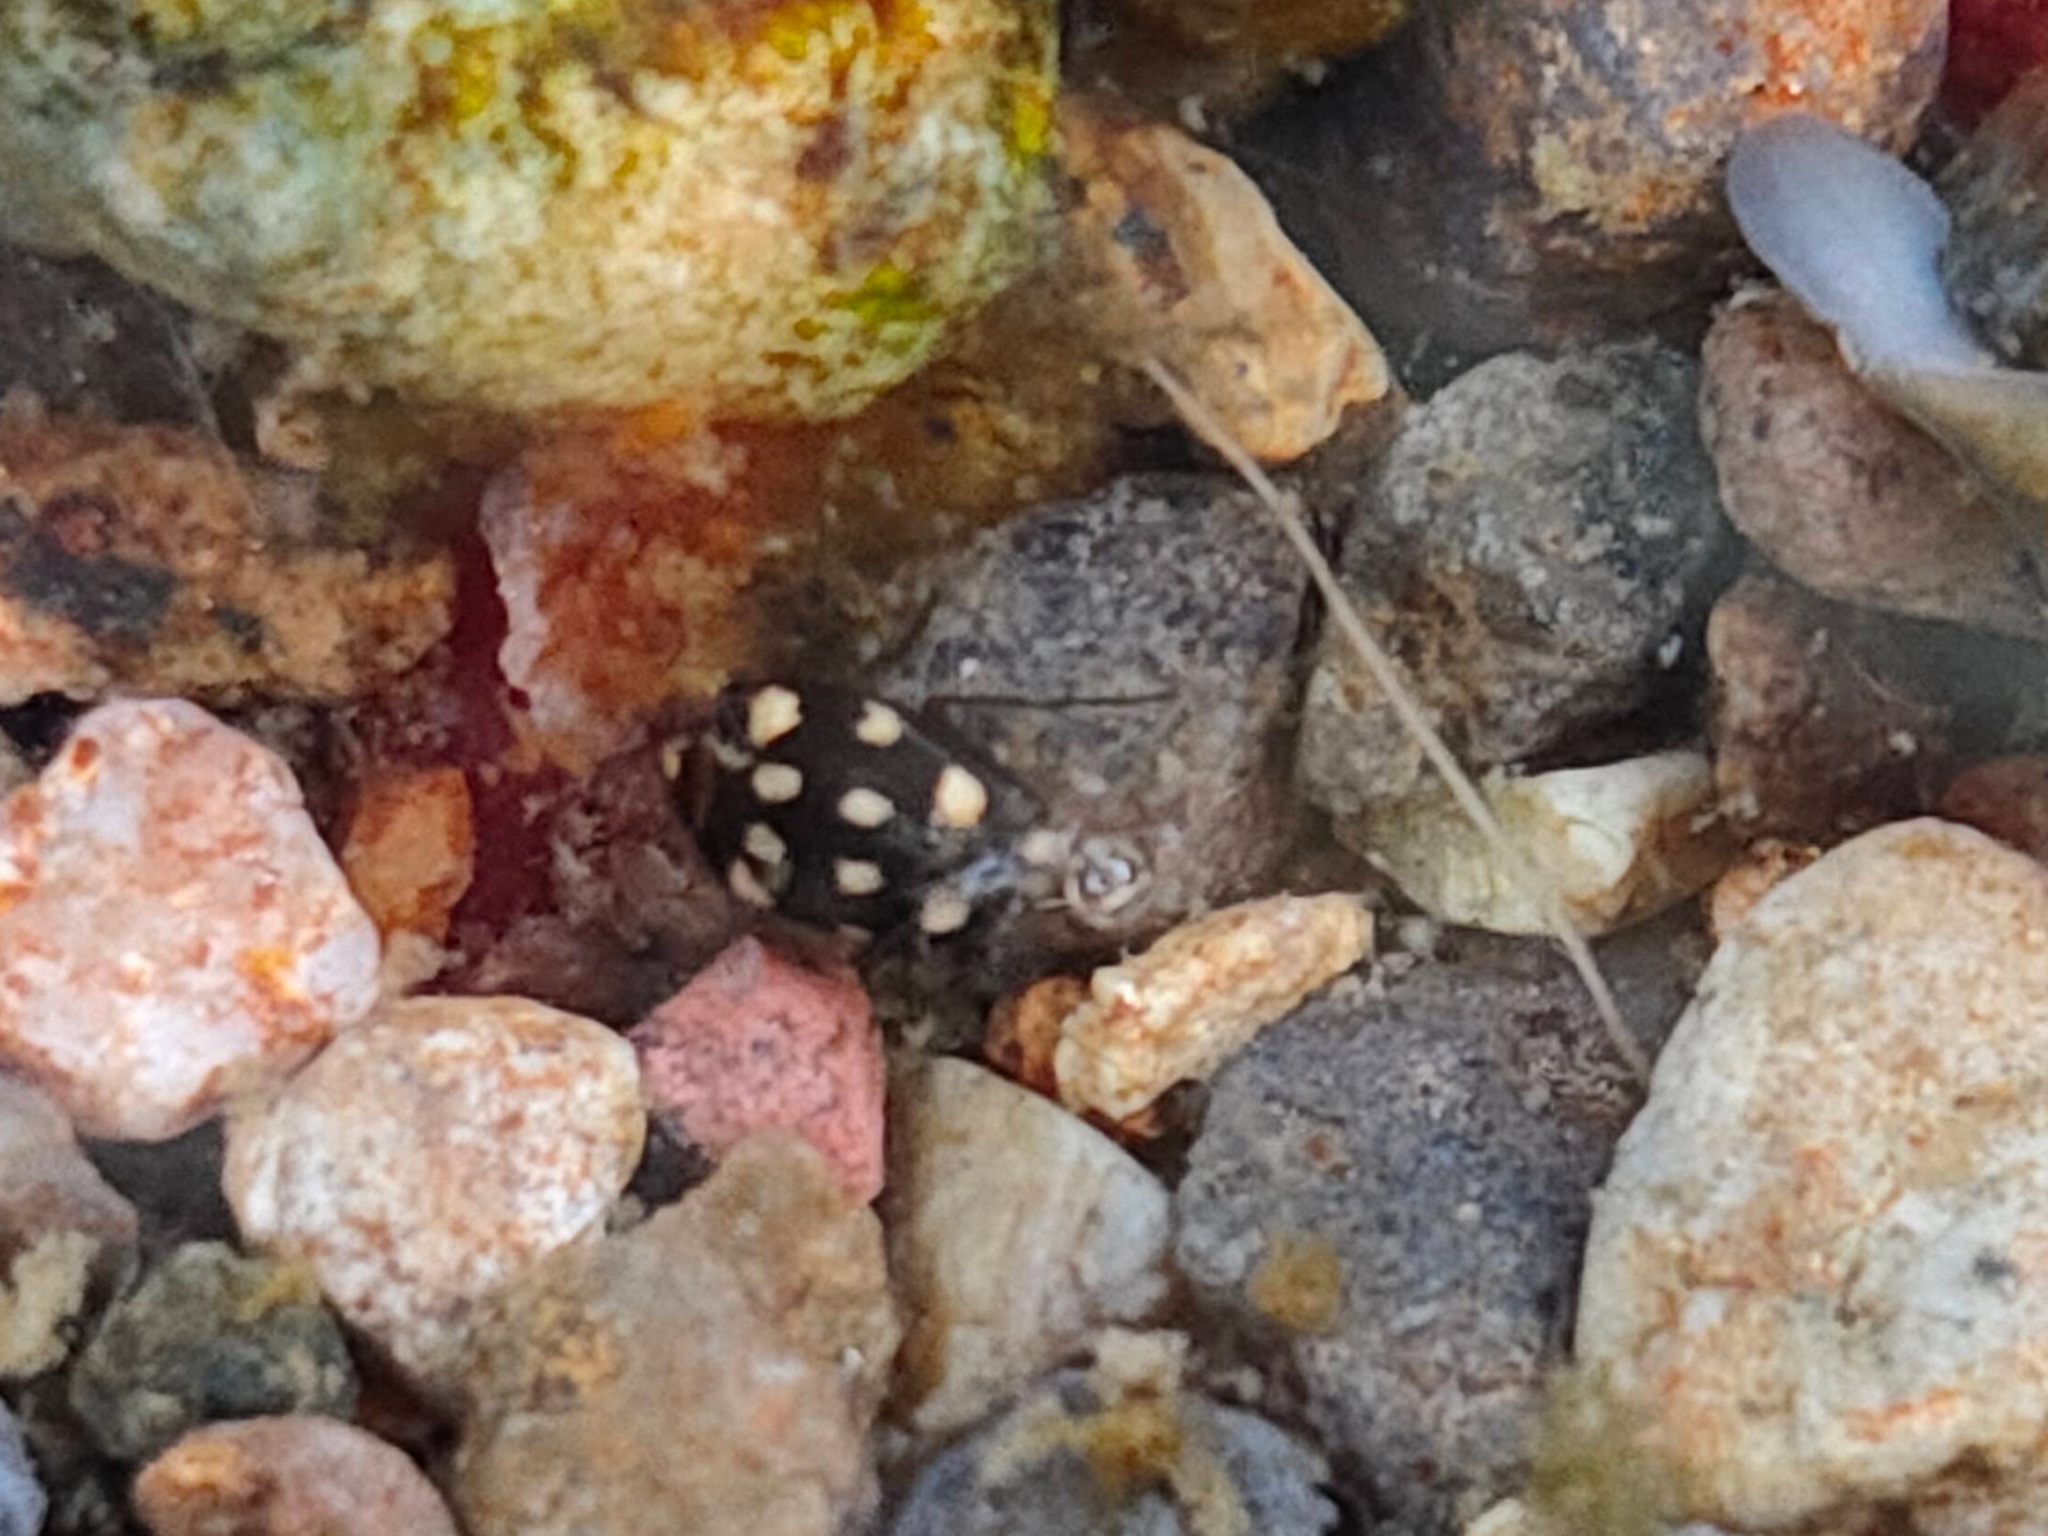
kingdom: Animalia
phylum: Arthropoda
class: Insecta
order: Coleoptera
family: Dytiscidae
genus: Neonectes
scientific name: Neonectes natrix
